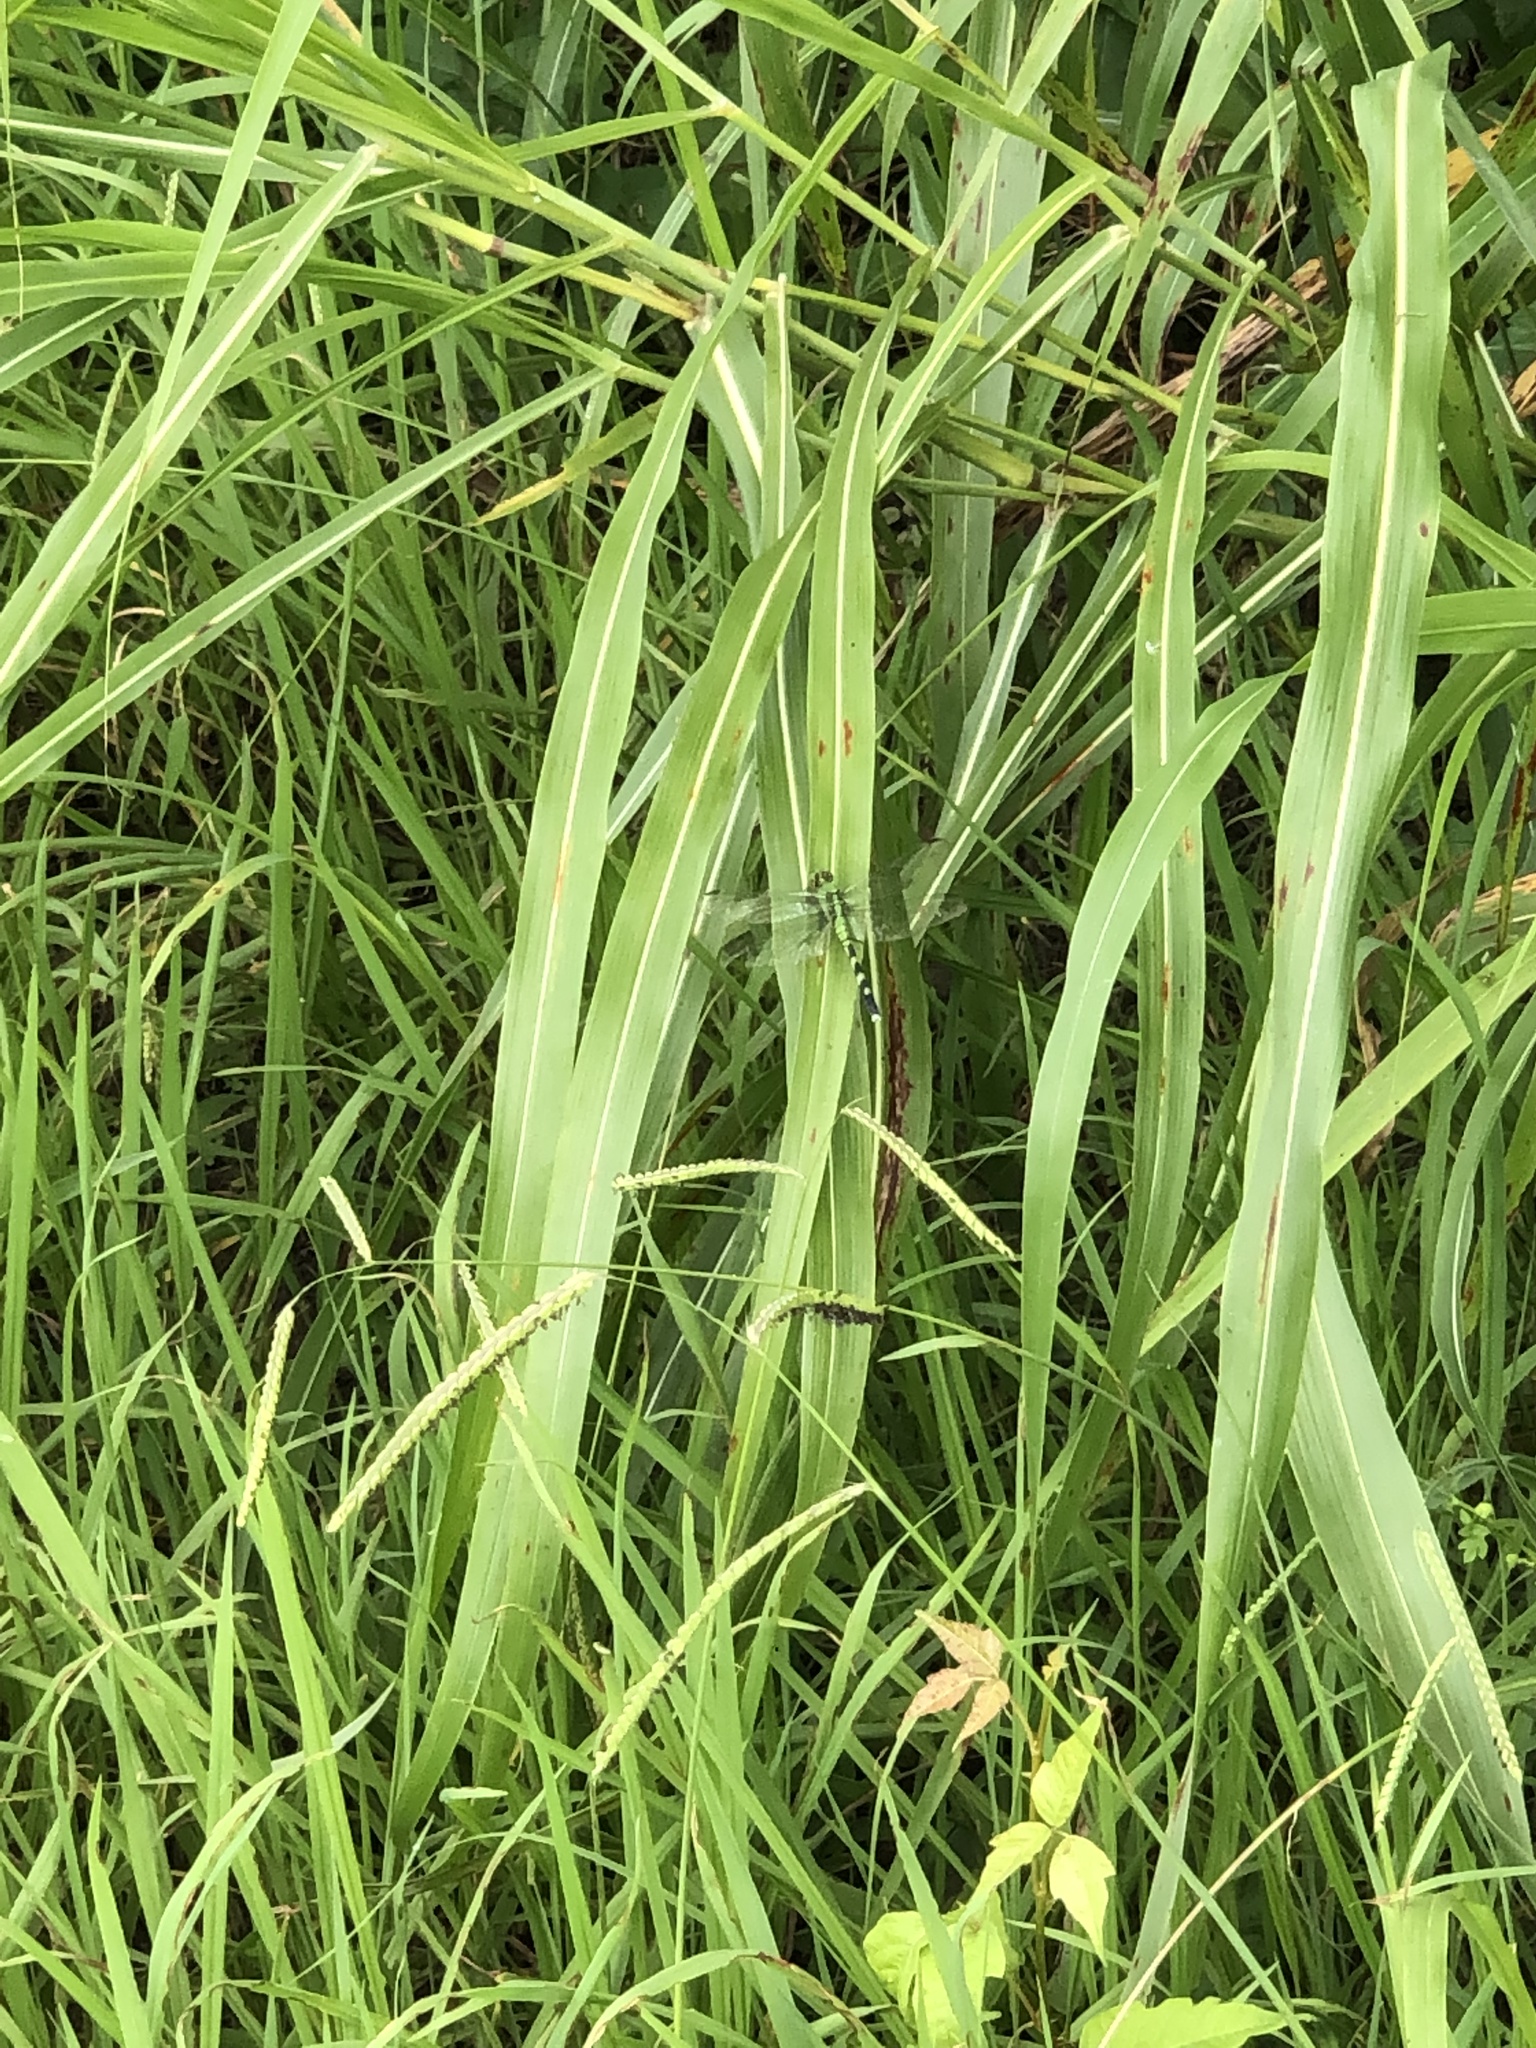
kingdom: Animalia
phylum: Arthropoda
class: Insecta
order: Odonata
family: Libellulidae
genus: Erythemis
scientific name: Erythemis simplicicollis
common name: Eastern pondhawk
